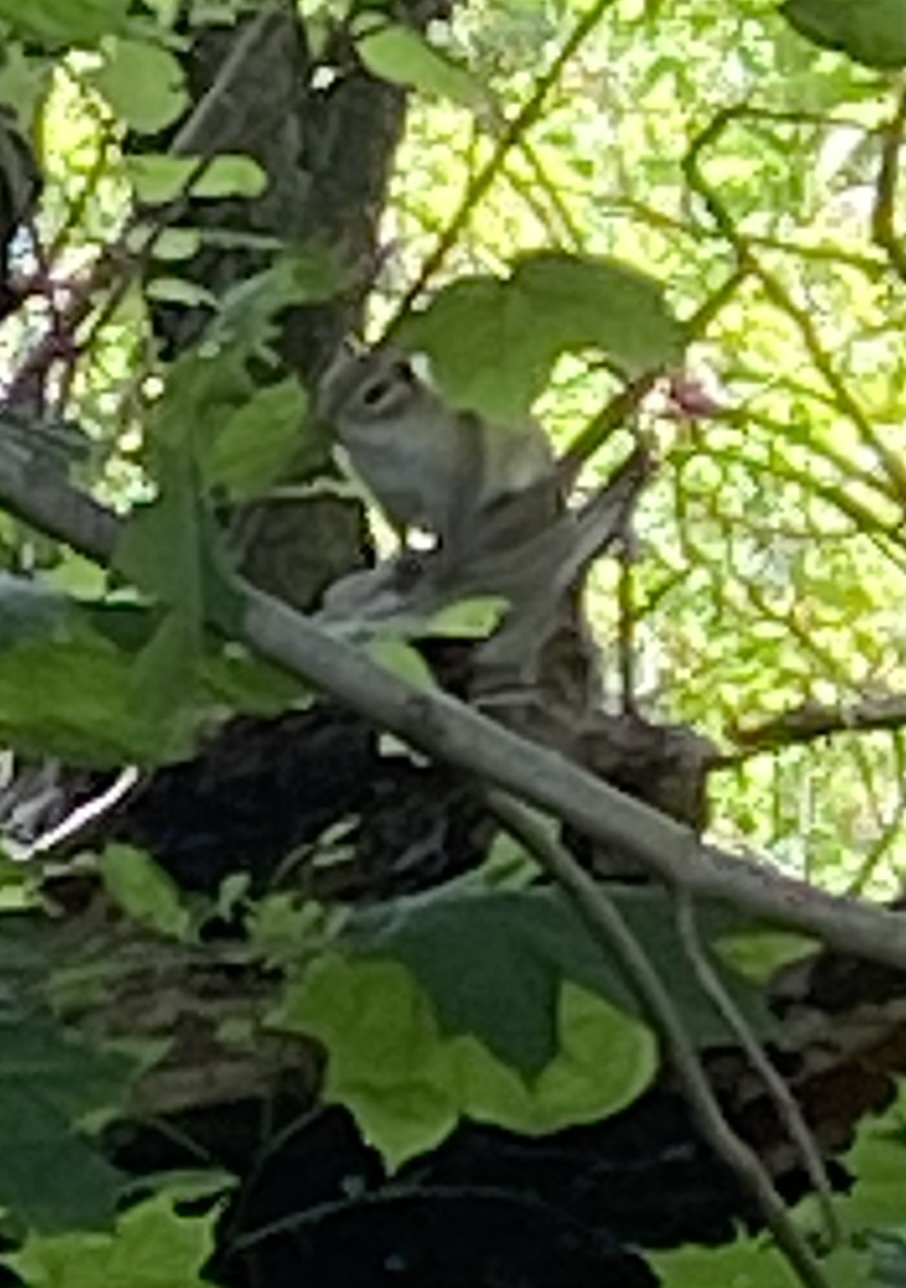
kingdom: Animalia
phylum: Chordata
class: Mammalia
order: Rodentia
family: Sciuridae
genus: Tamias
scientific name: Tamias striatus
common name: Eastern chipmunk
